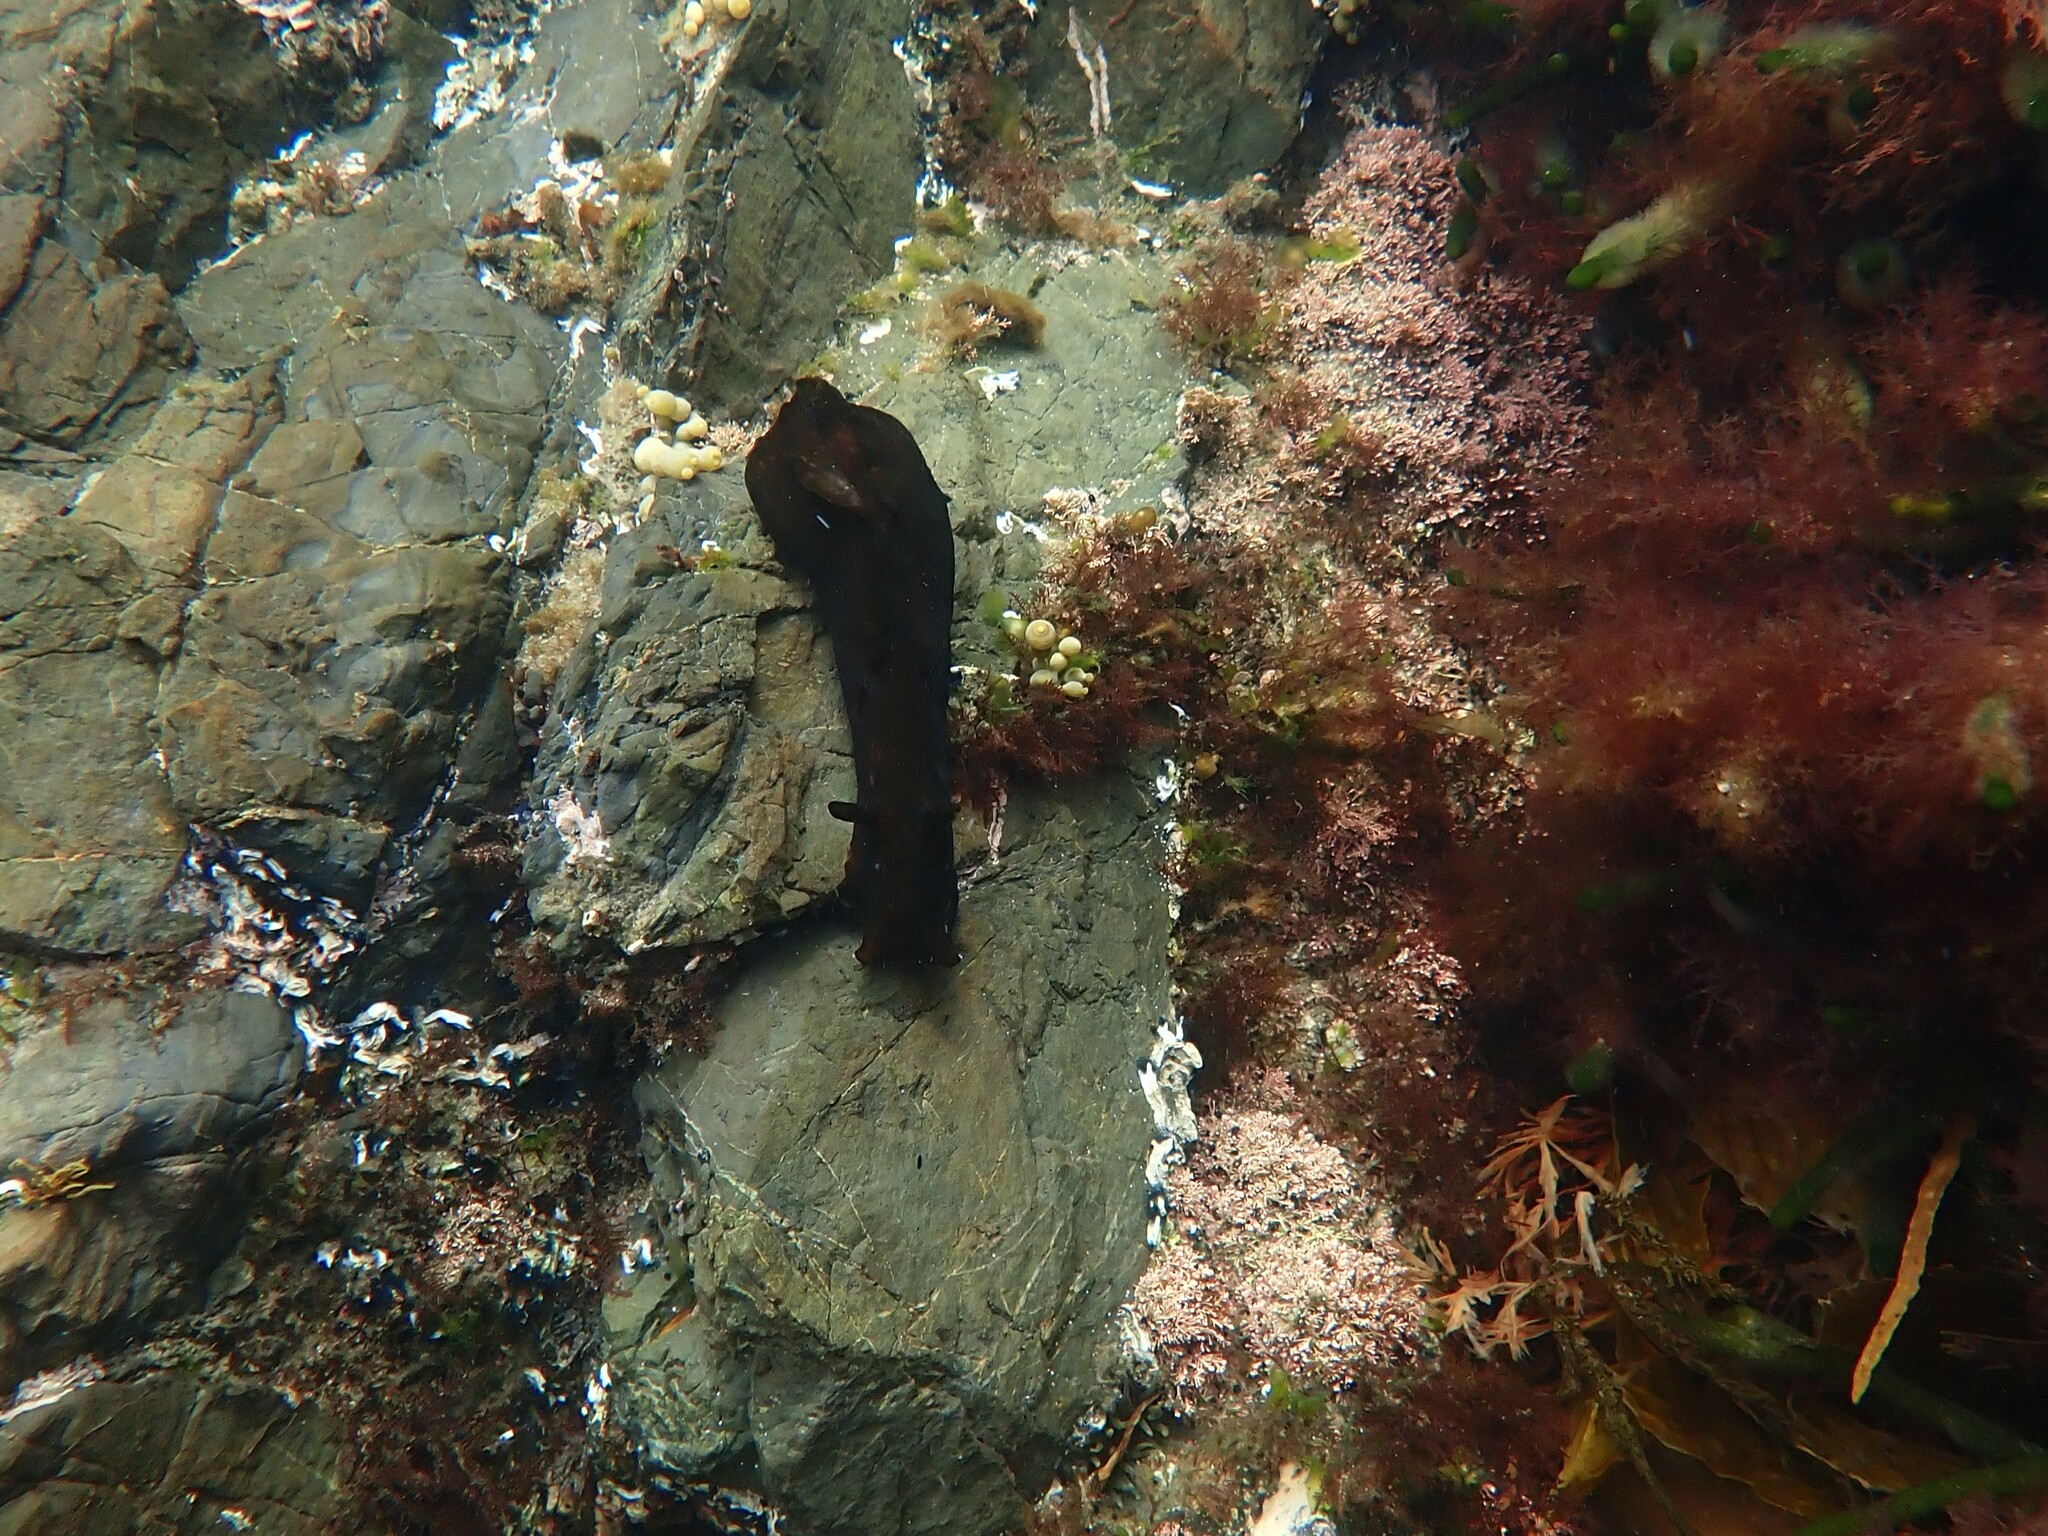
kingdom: Animalia
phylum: Mollusca
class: Gastropoda
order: Aplysiida
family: Aplysiidae
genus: Aplysia
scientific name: Aplysia juliana
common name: Walking sea hare
